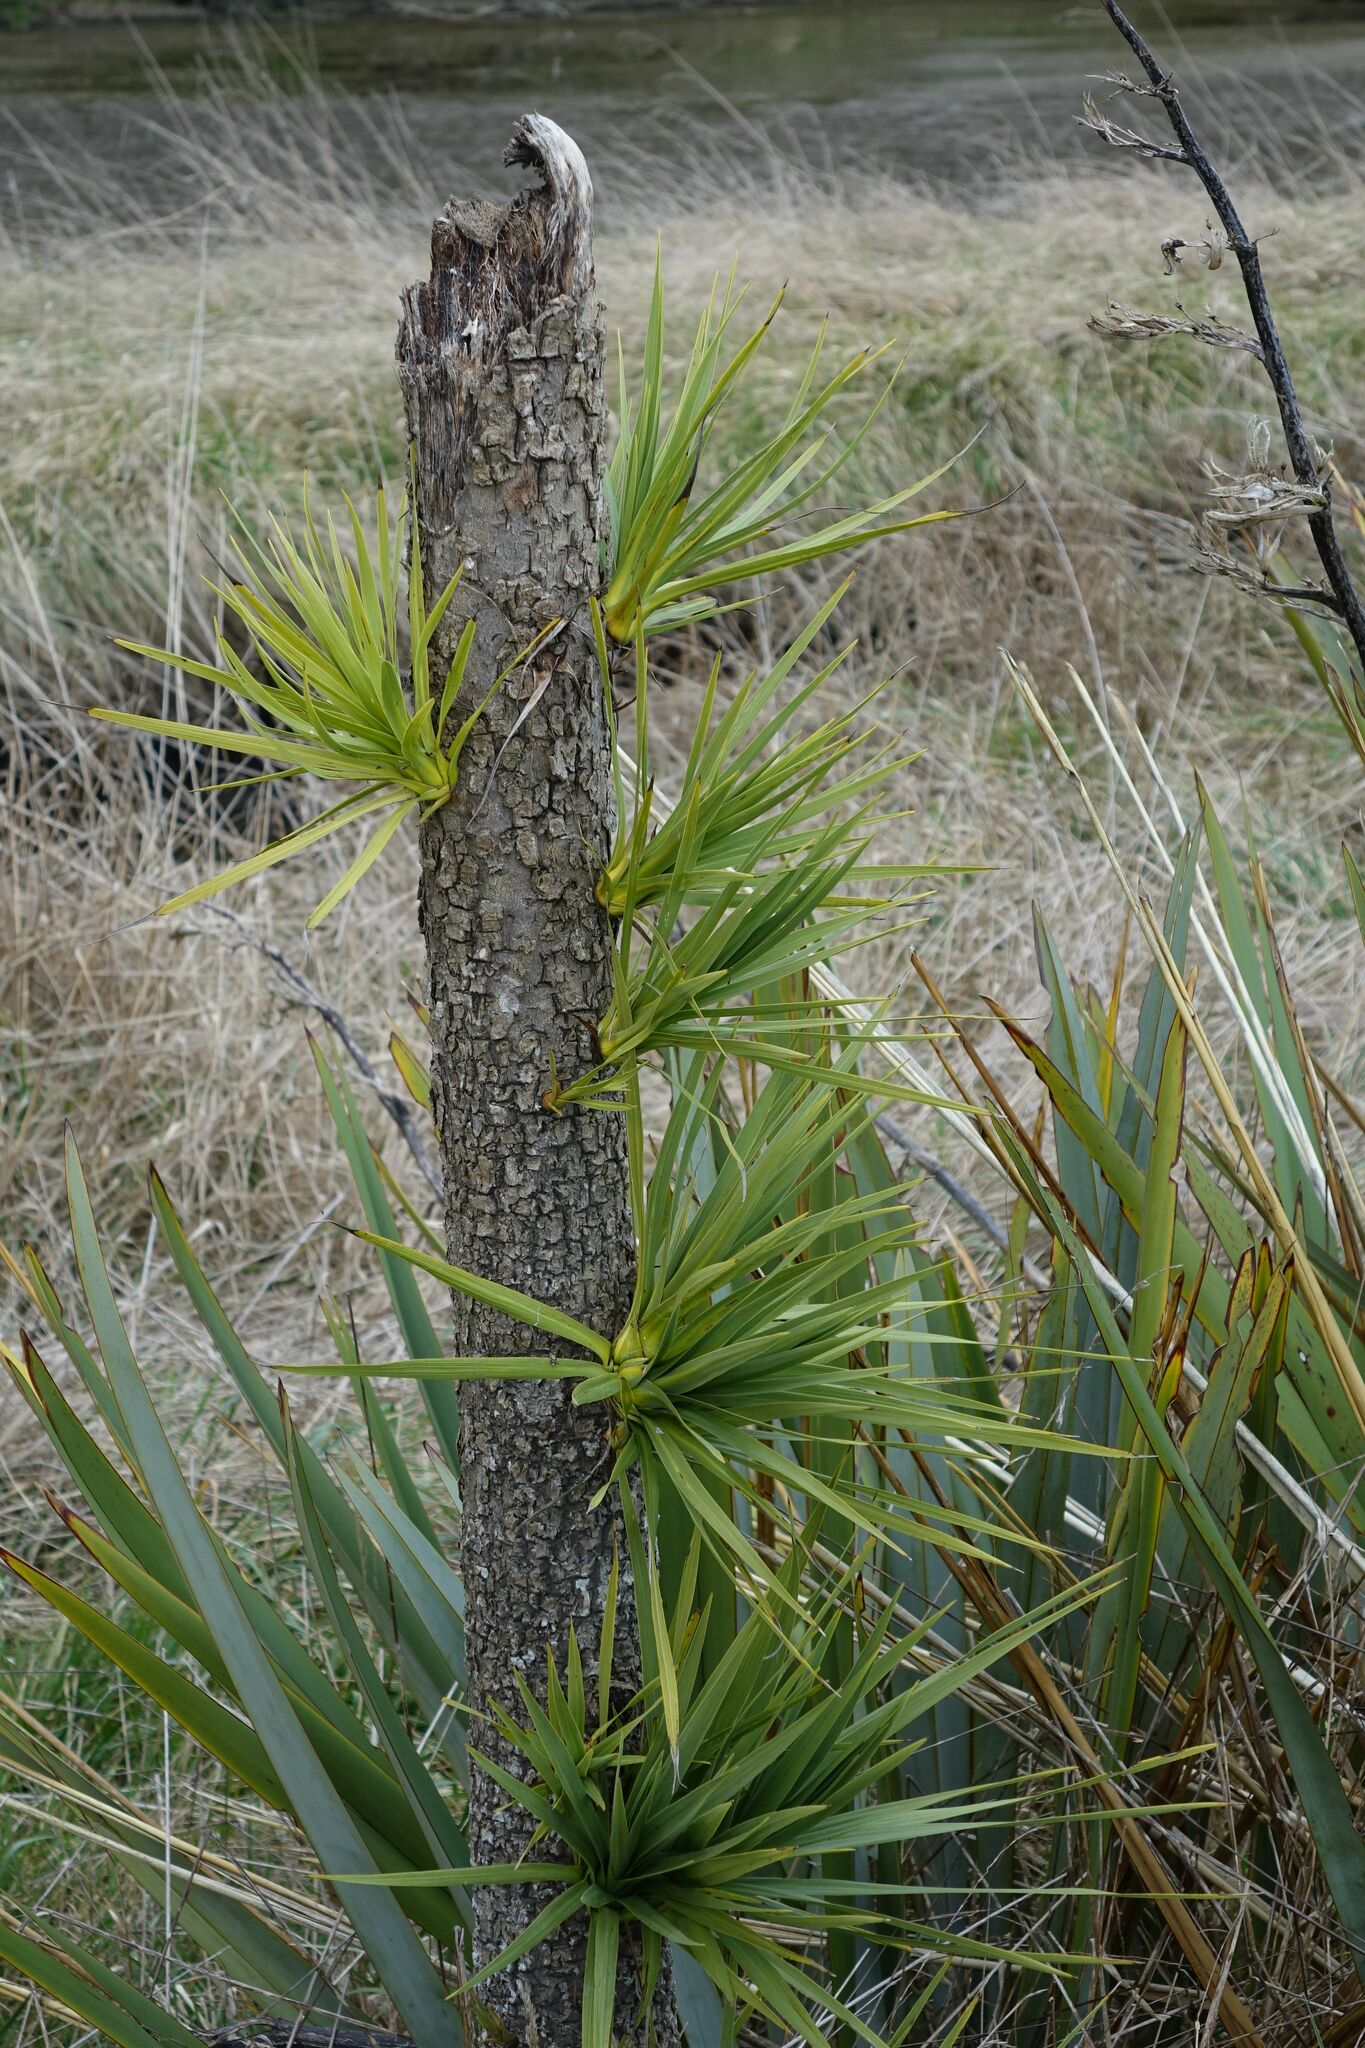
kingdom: Plantae
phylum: Tracheophyta
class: Liliopsida
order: Asparagales
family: Asparagaceae
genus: Cordyline
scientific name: Cordyline australis
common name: Cabbage-palm
